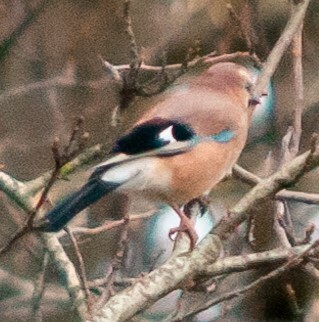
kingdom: Animalia
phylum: Chordata
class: Aves
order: Passeriformes
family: Corvidae
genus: Garrulus
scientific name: Garrulus glandarius
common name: Eurasian jay
